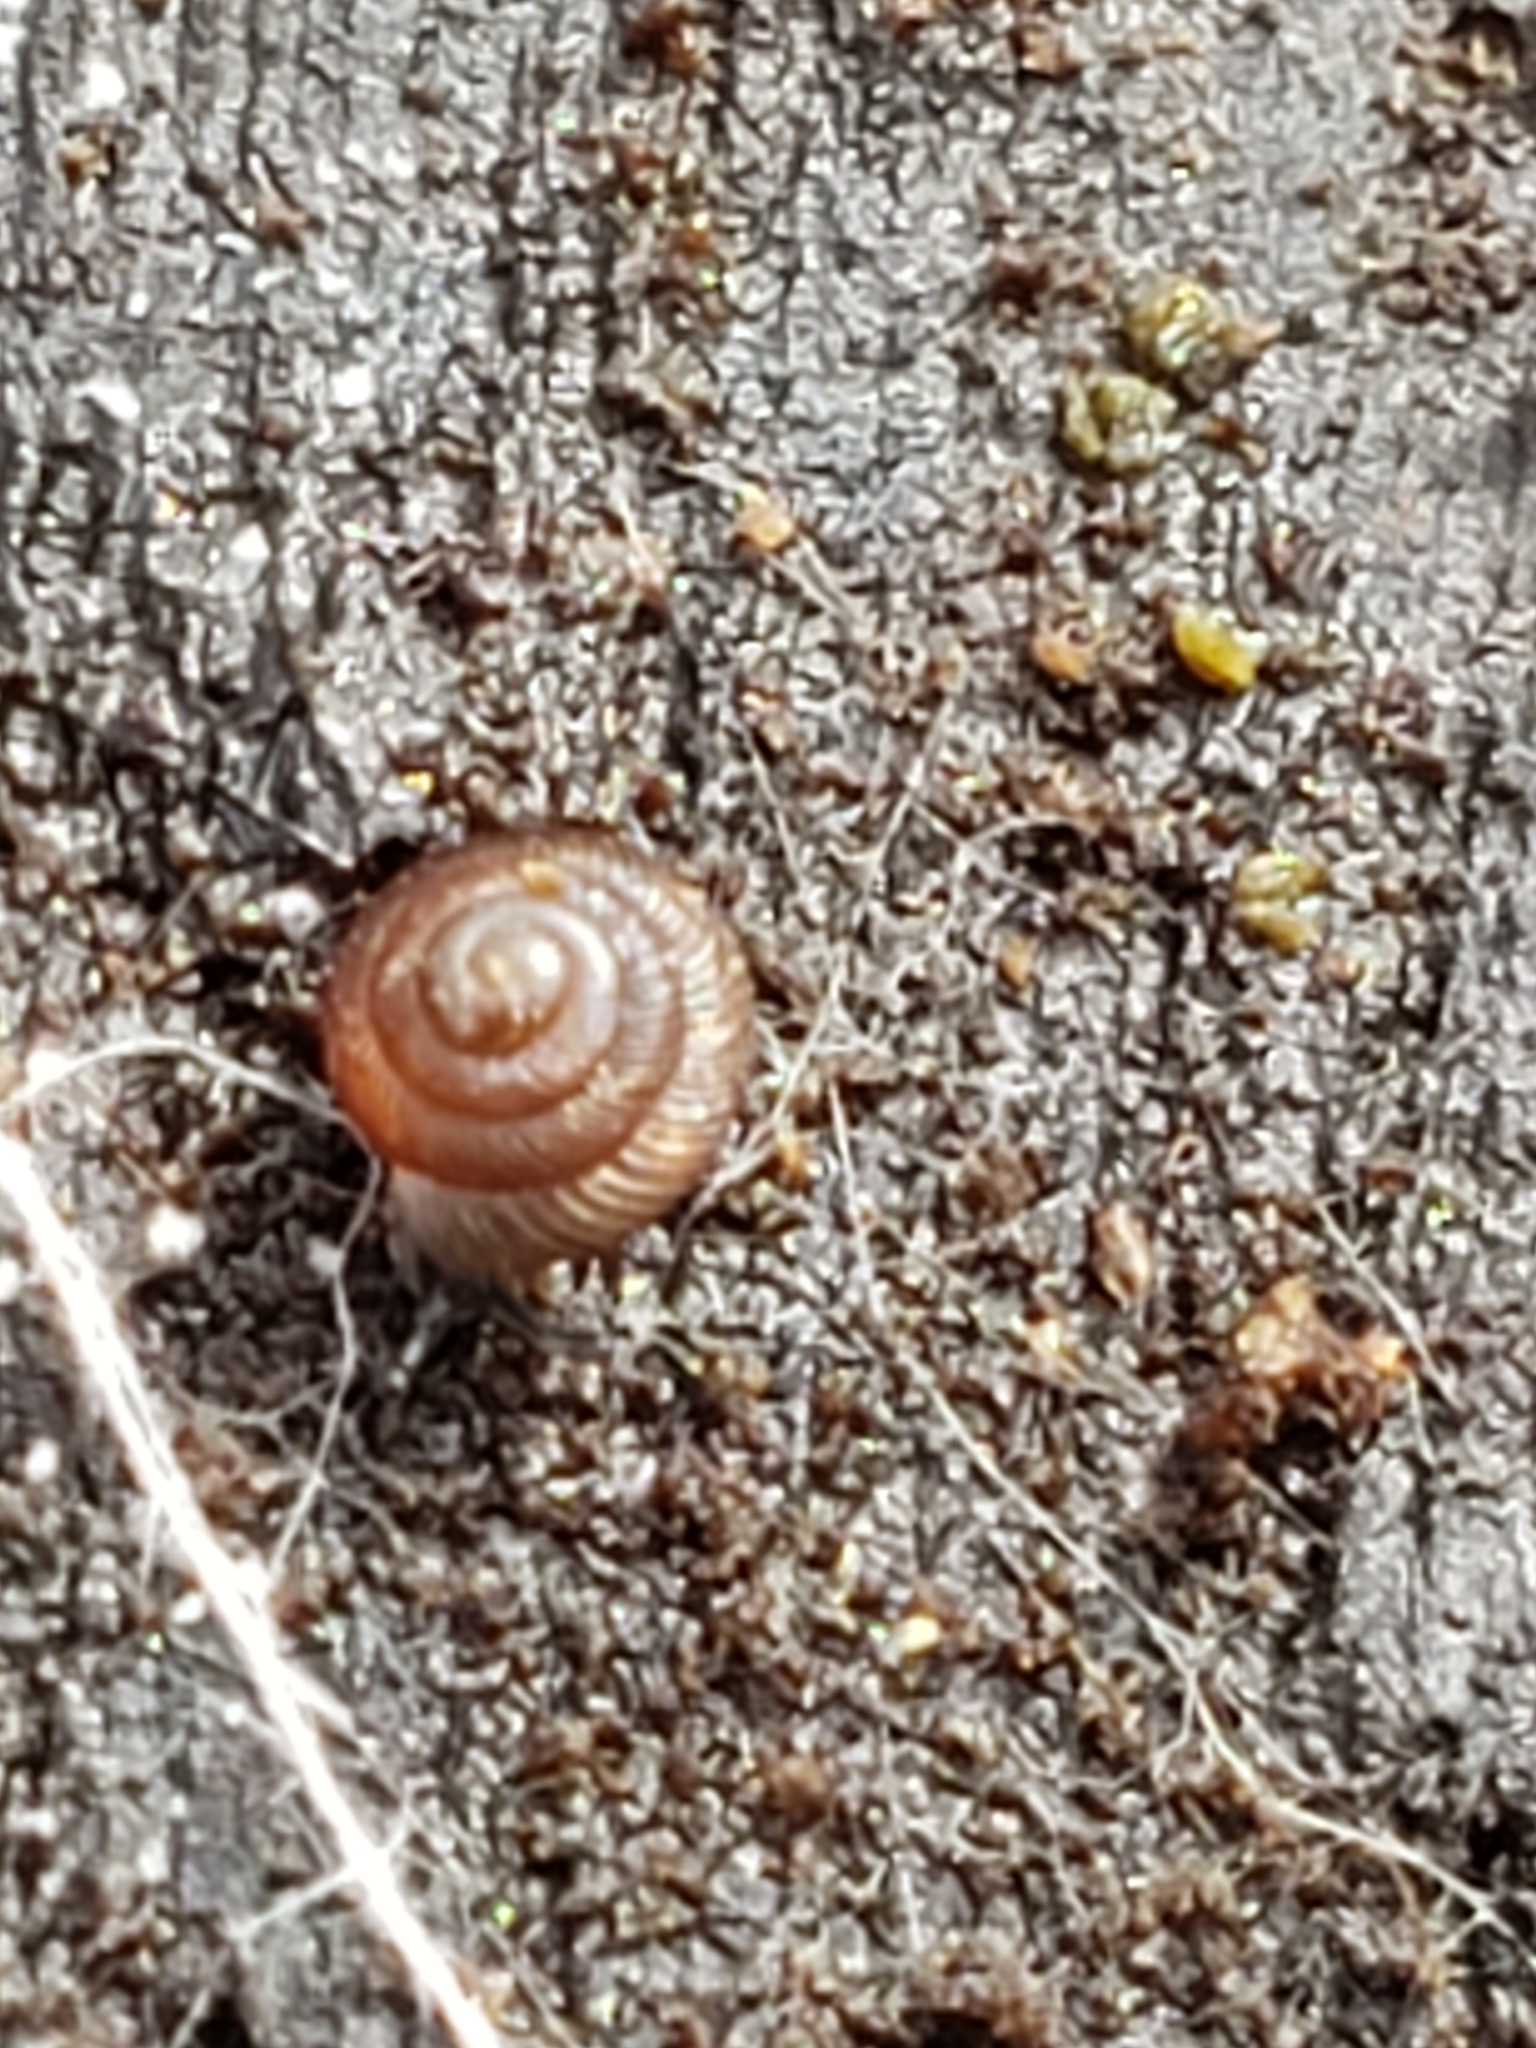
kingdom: Animalia
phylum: Mollusca
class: Gastropoda
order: Stylommatophora
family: Strobilopsidae
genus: Strobilops
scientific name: Strobilops aeneus
